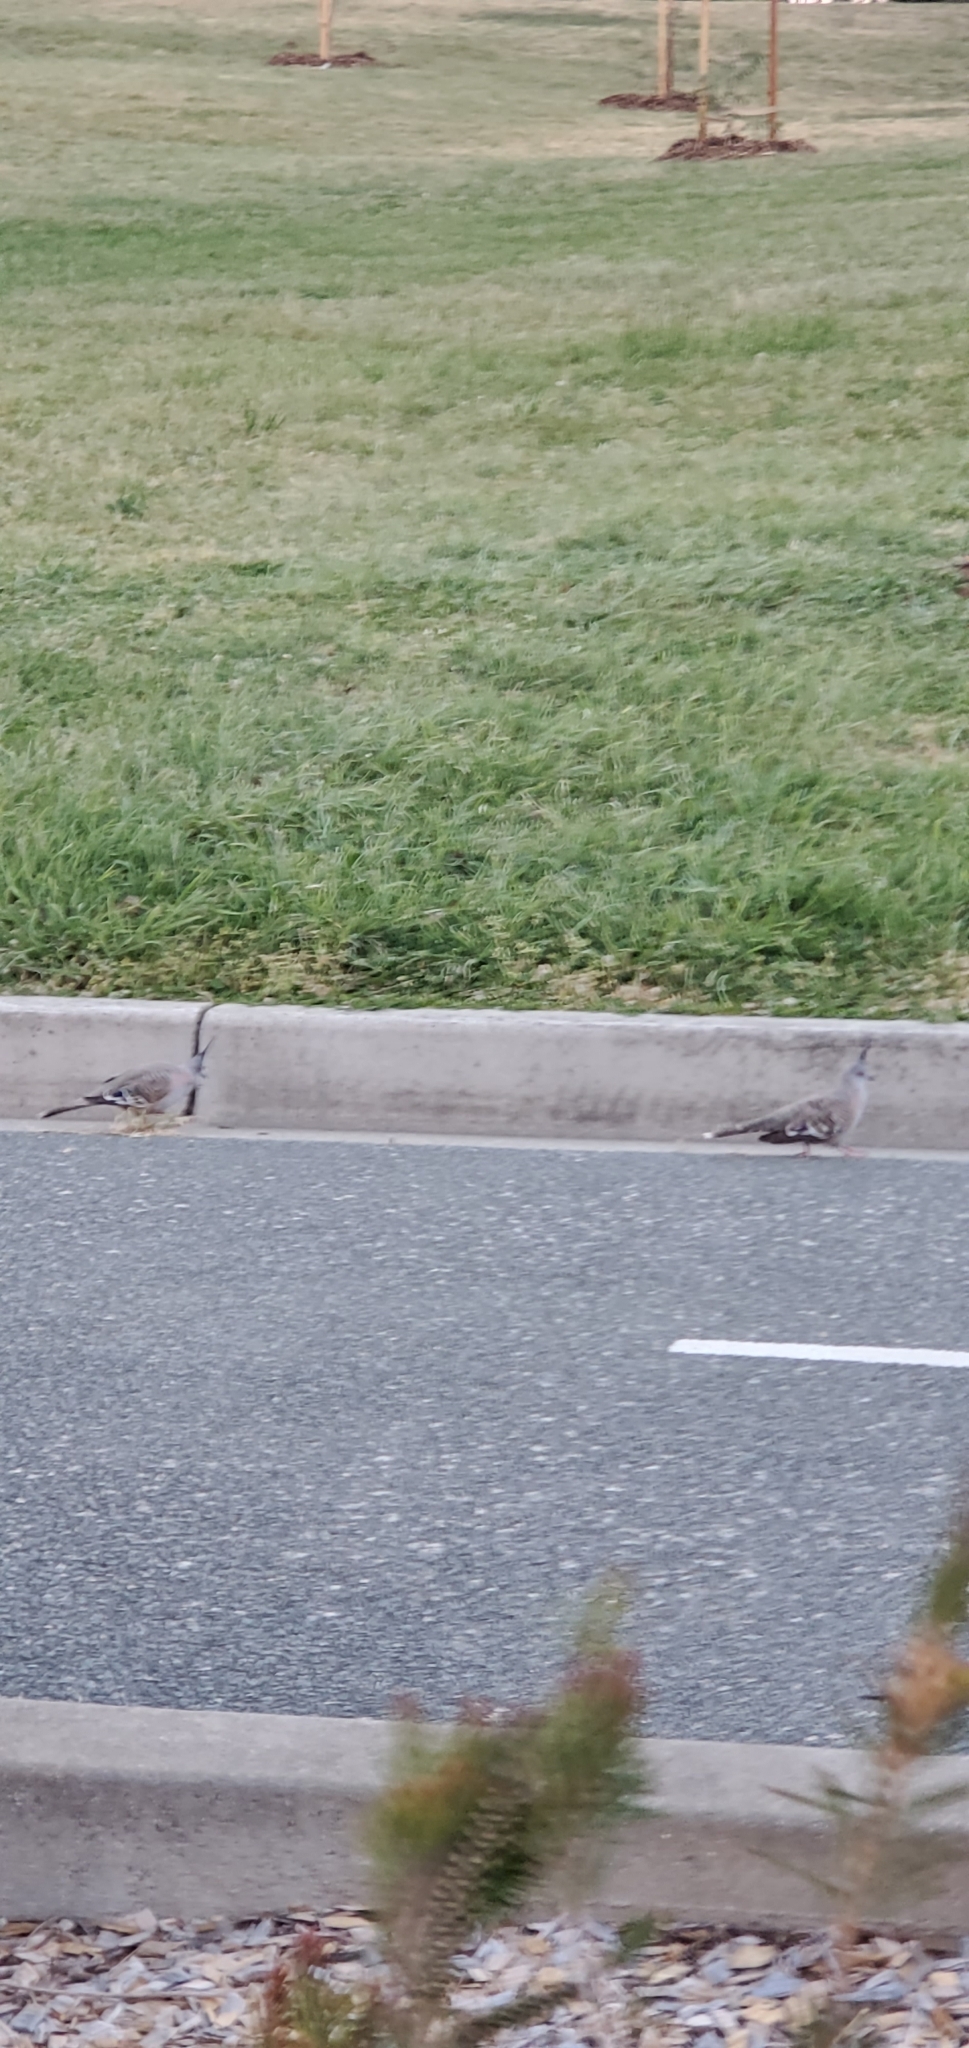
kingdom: Animalia
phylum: Chordata
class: Aves
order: Columbiformes
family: Columbidae
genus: Ocyphaps
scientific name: Ocyphaps lophotes
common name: Crested pigeon
